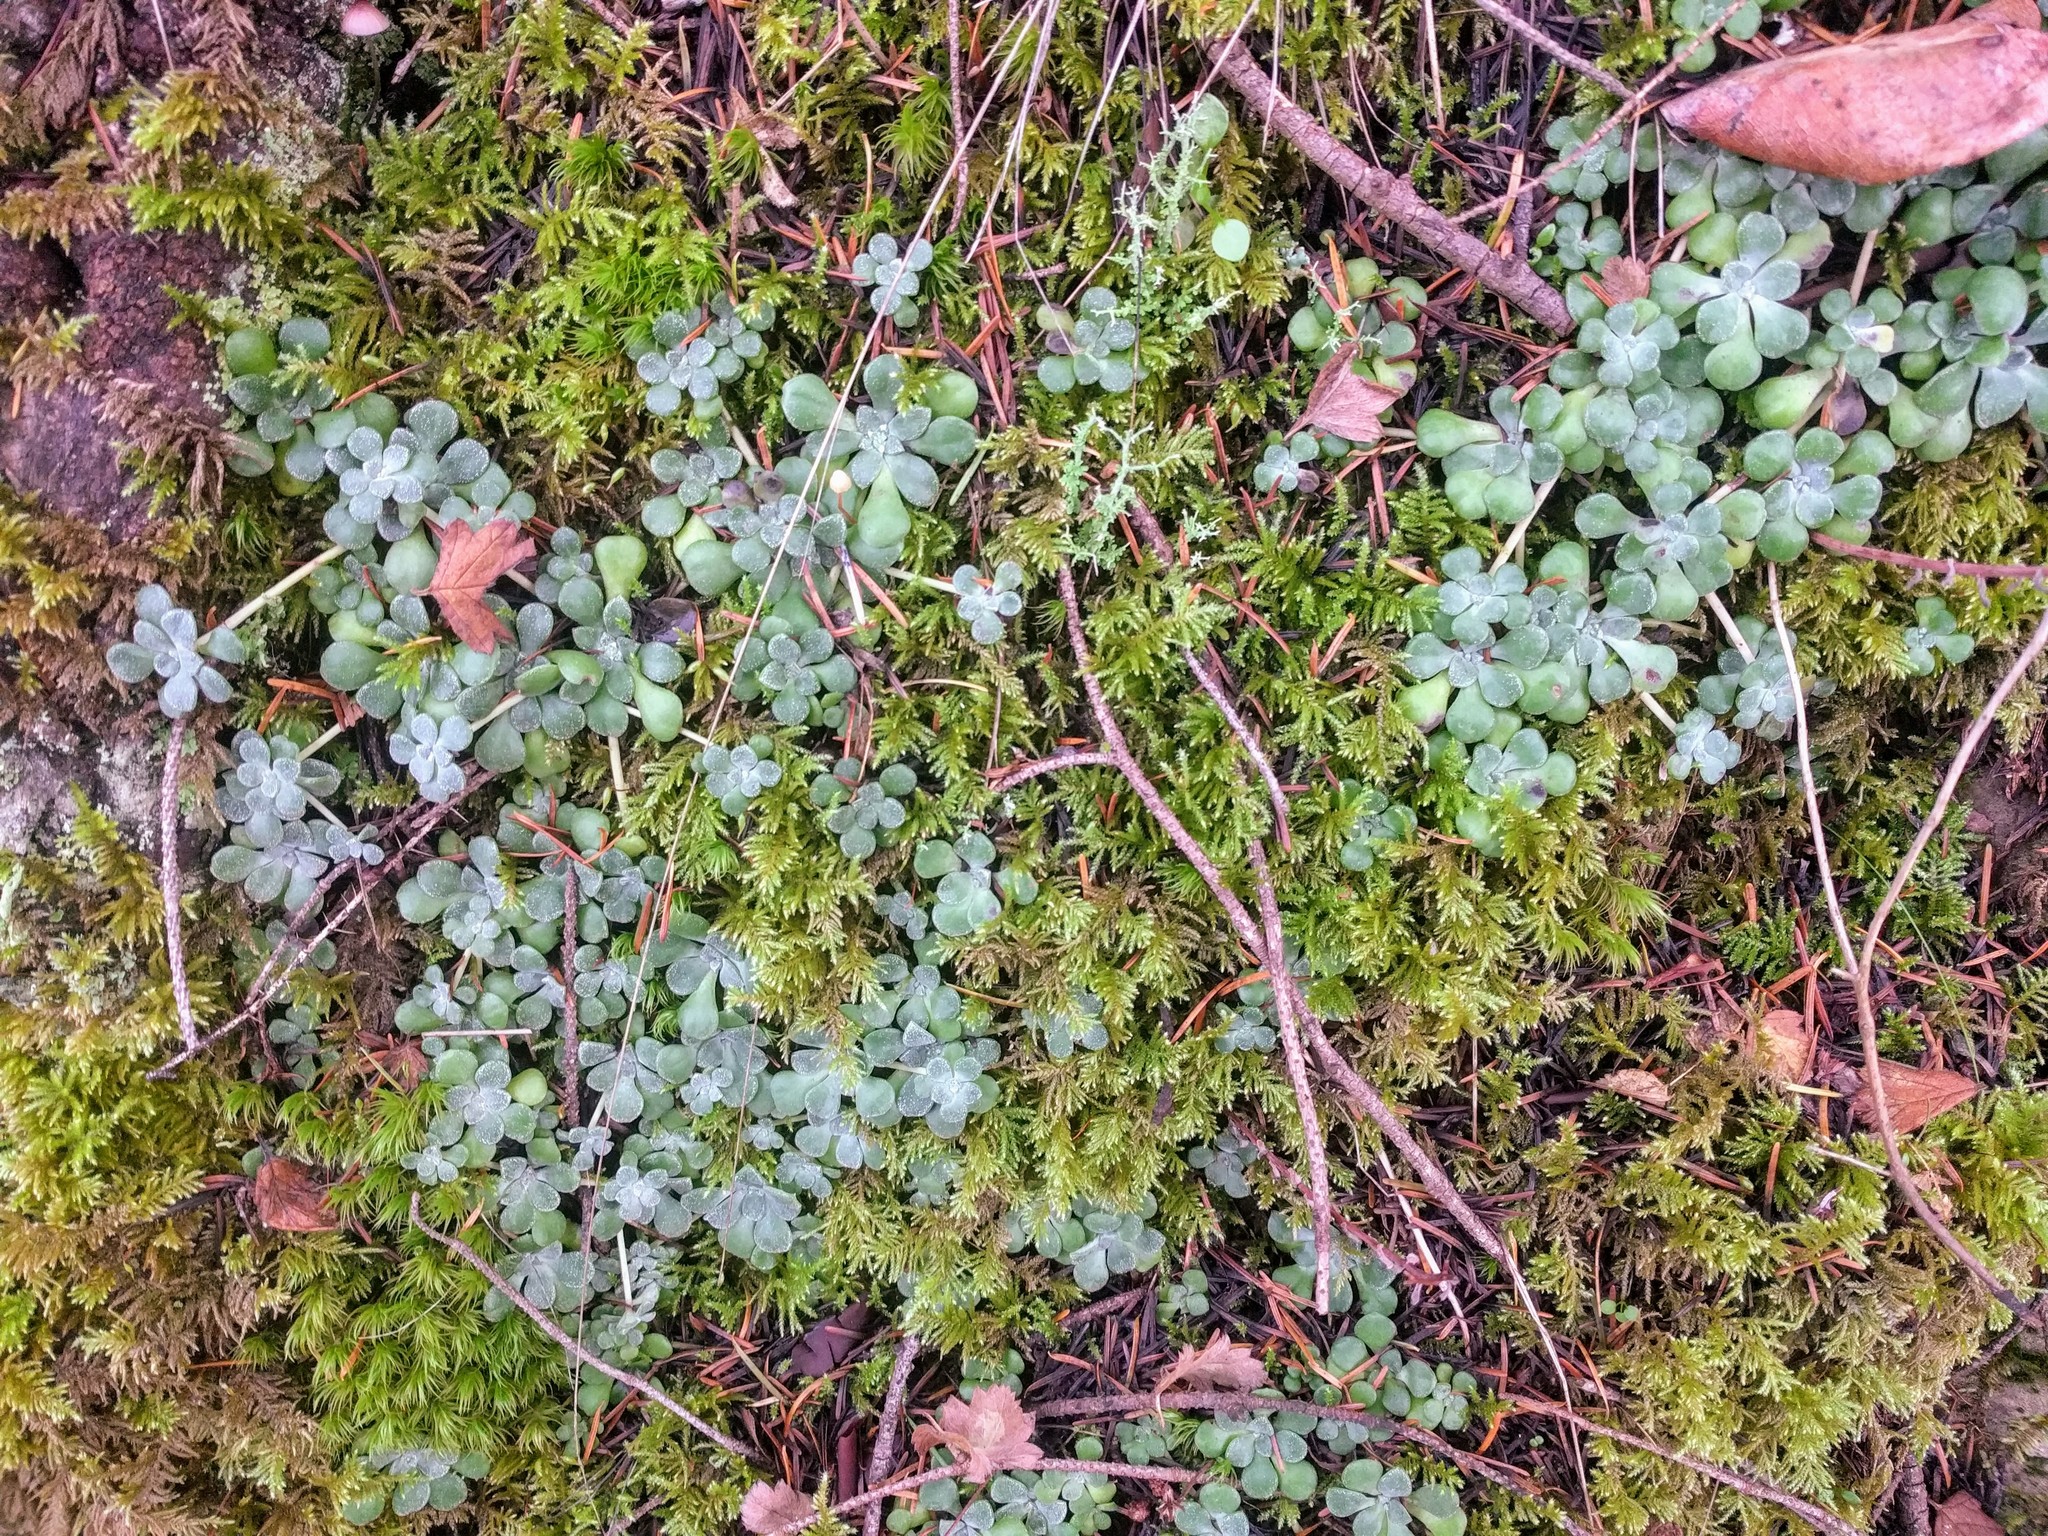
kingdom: Plantae
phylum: Tracheophyta
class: Magnoliopsida
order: Saxifragales
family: Crassulaceae
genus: Sedum
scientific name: Sedum spathulifolium
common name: Colorado stonecrop
